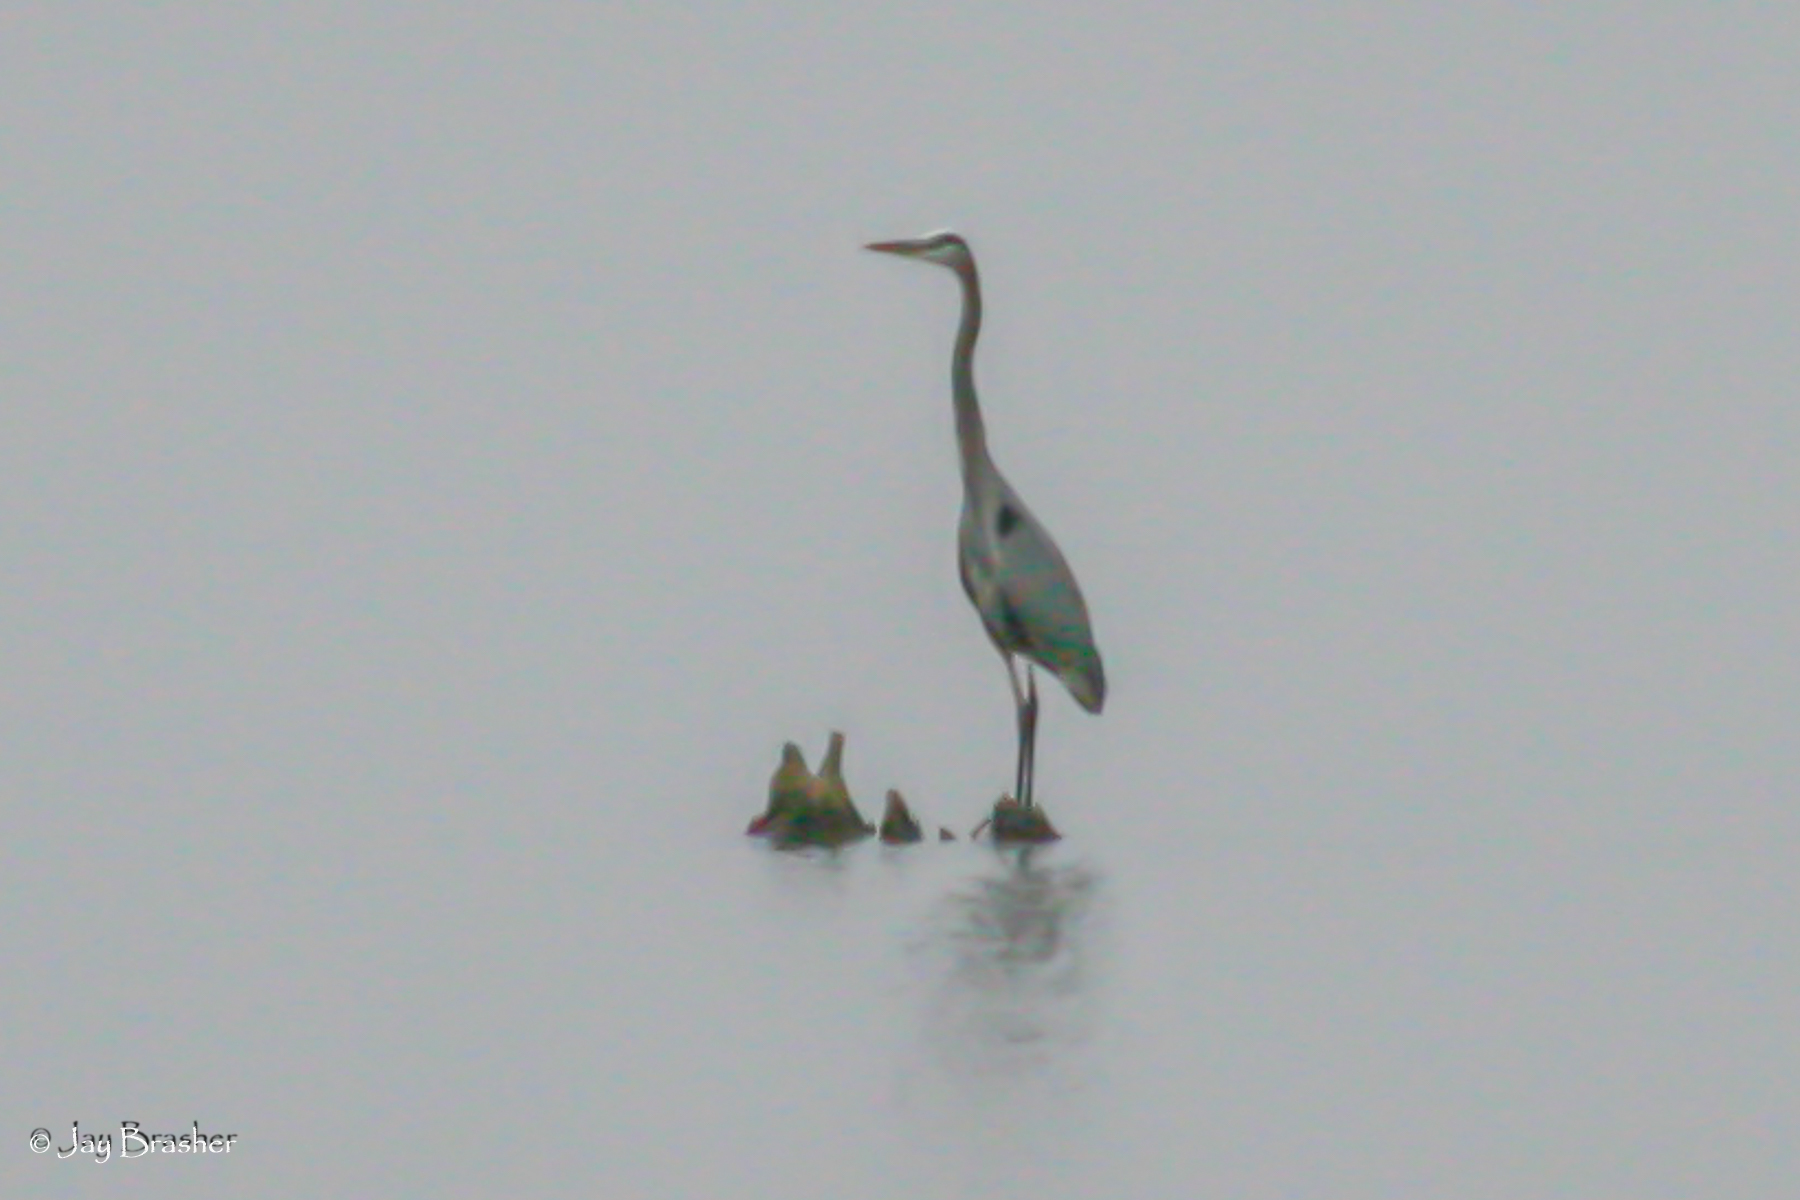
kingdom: Animalia
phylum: Chordata
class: Aves
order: Pelecaniformes
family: Ardeidae
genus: Ardea
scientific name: Ardea herodias
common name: Great blue heron
